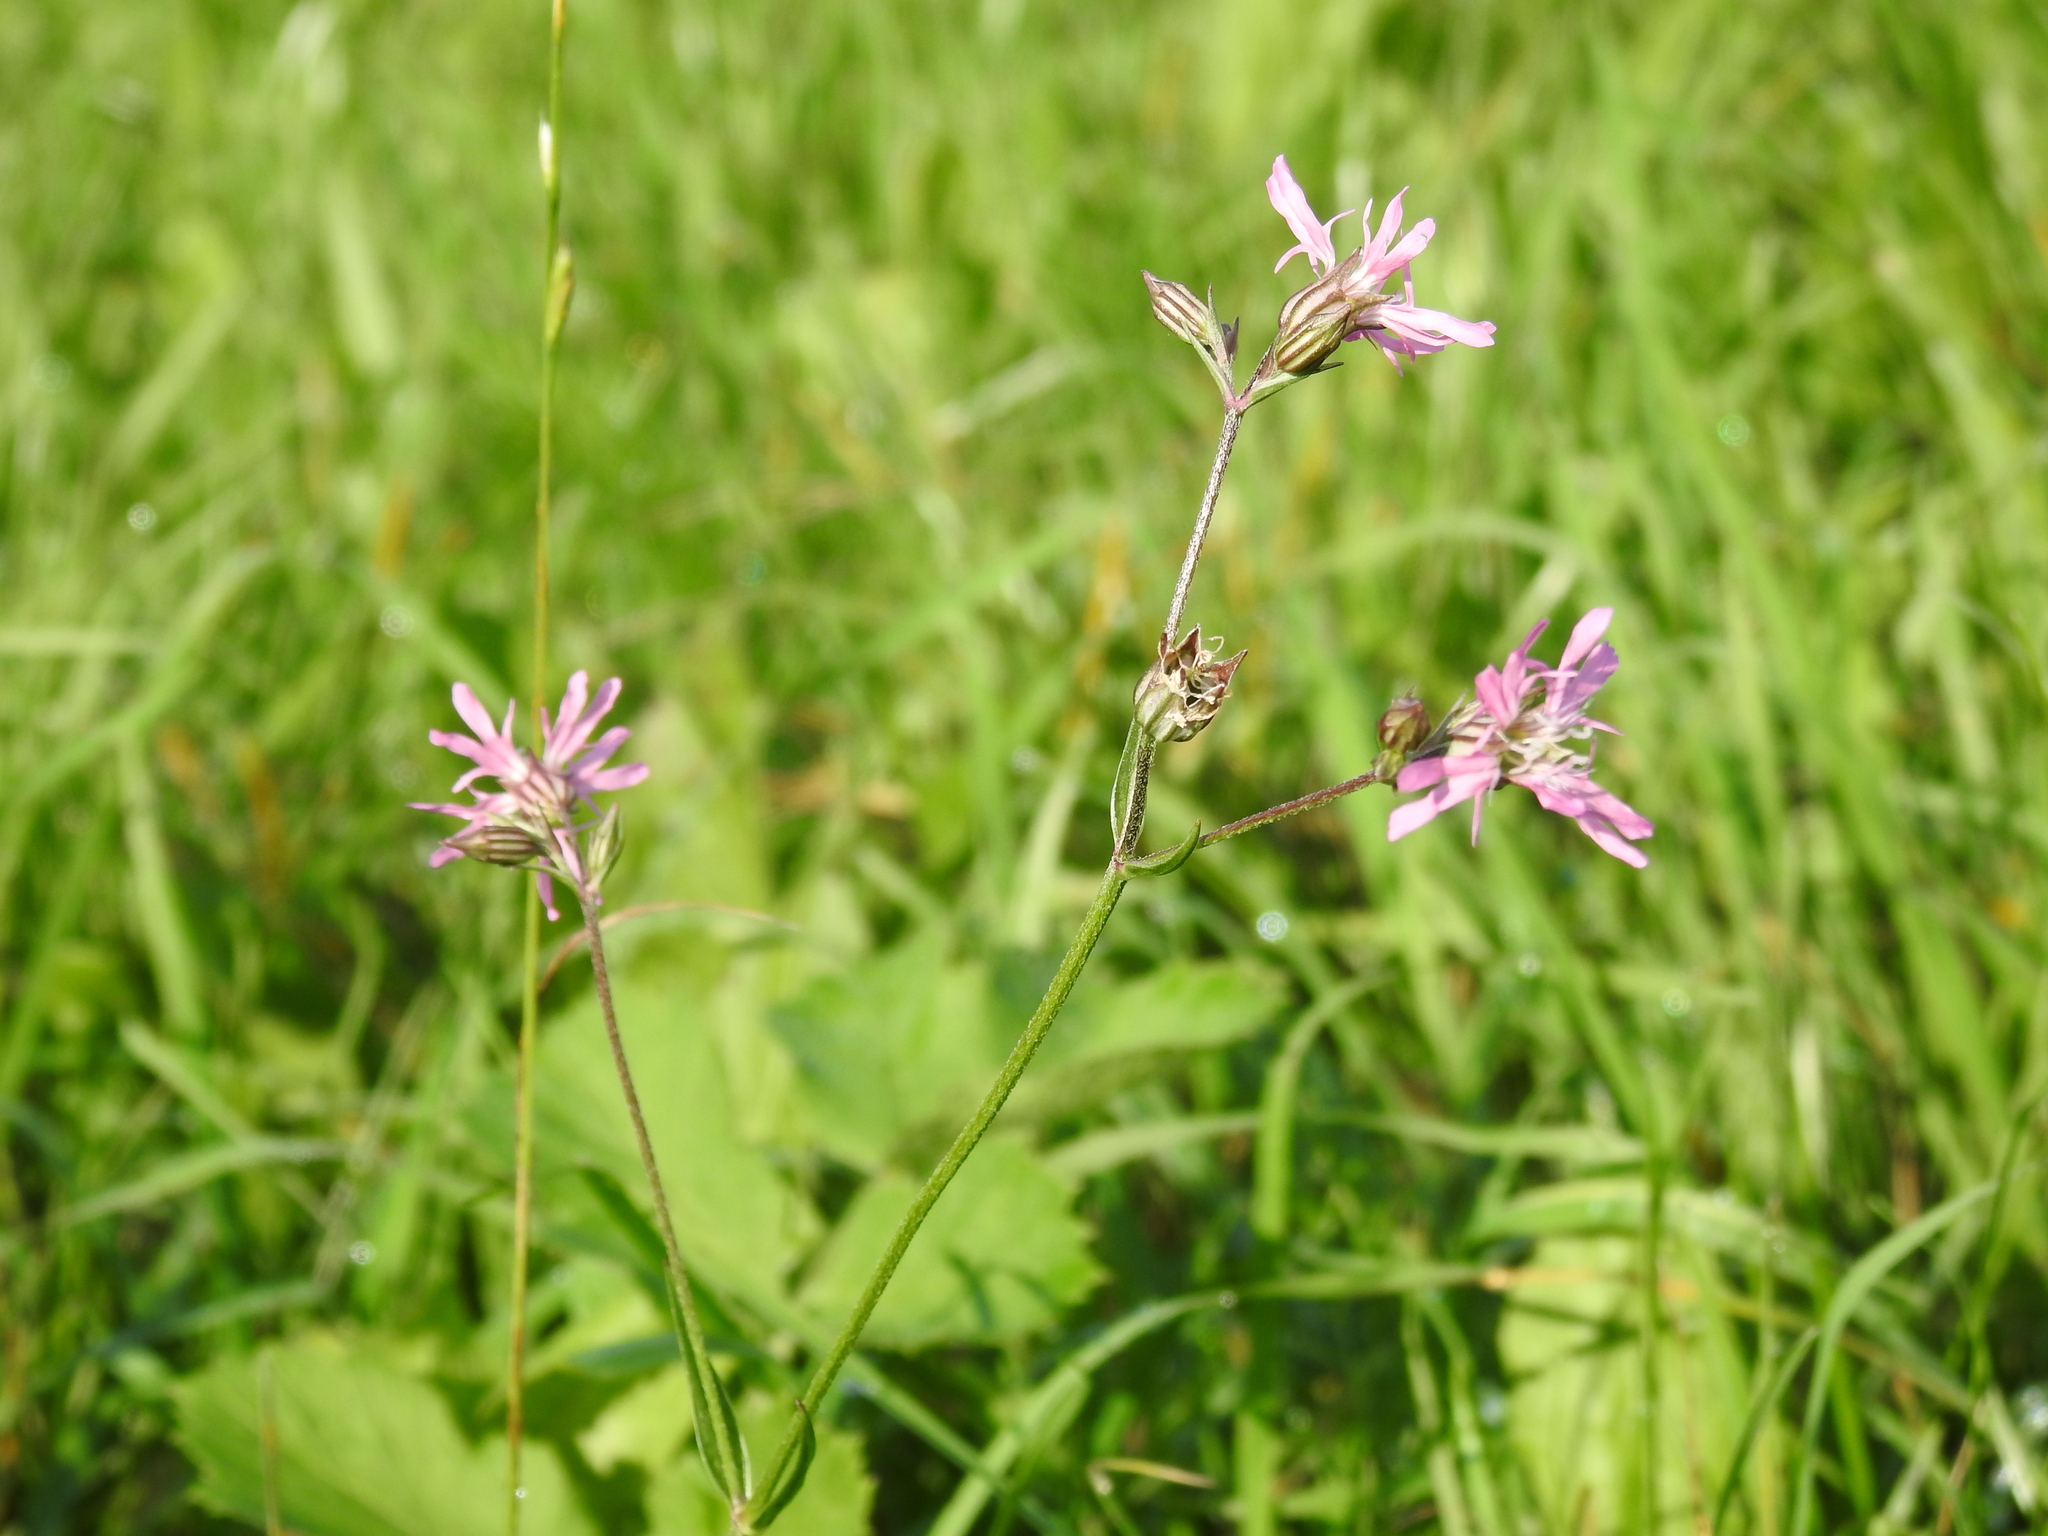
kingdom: Plantae
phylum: Tracheophyta
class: Magnoliopsida
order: Caryophyllales
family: Caryophyllaceae
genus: Silene
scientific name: Silene flos-cuculi
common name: Ragged-robin
